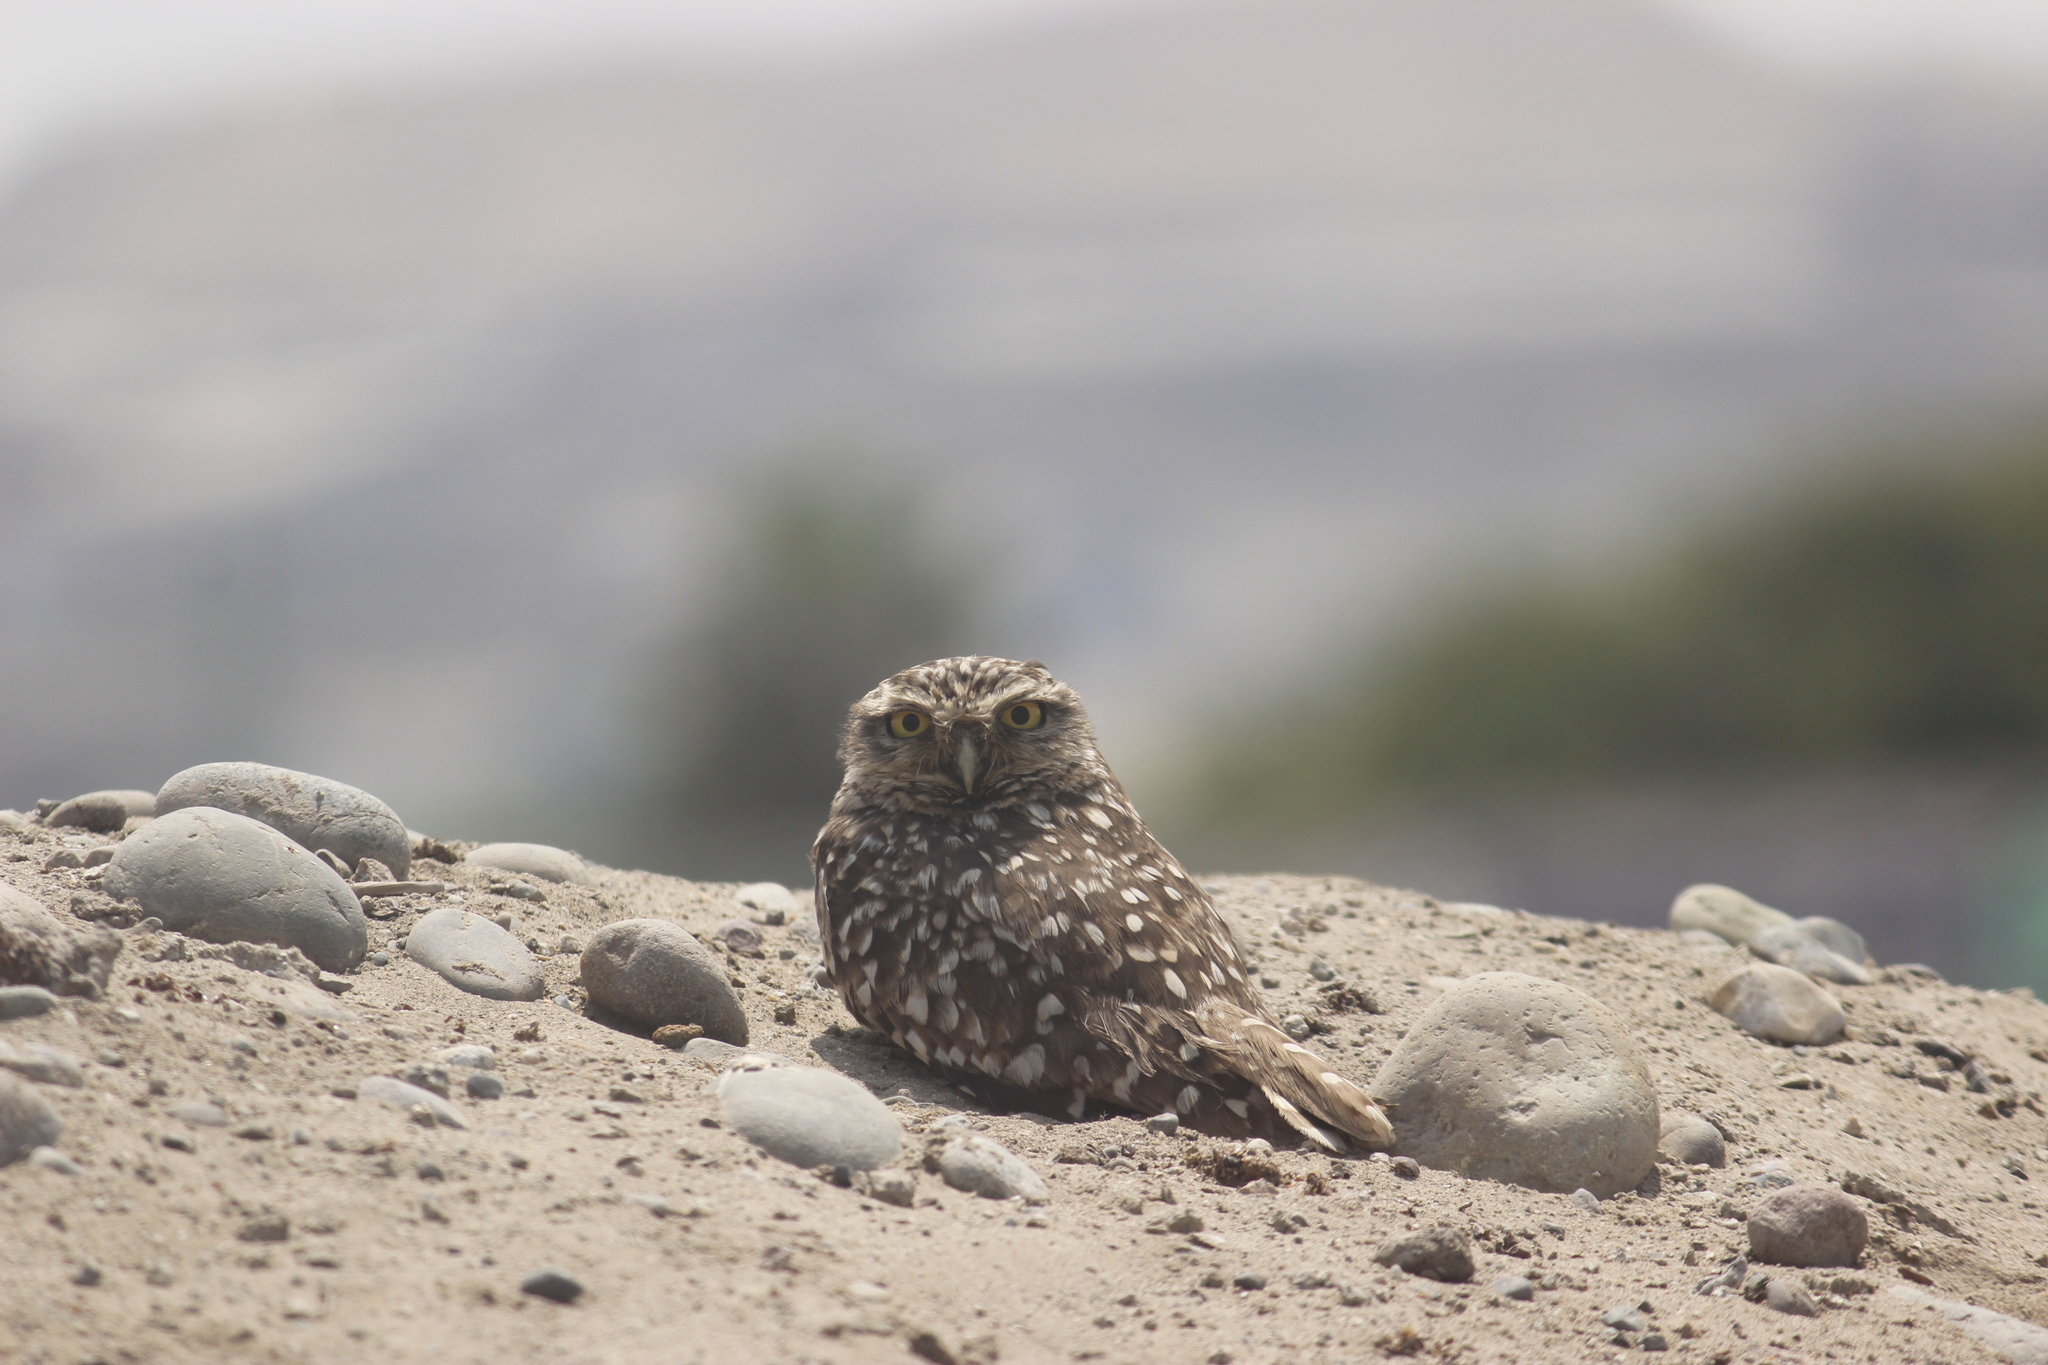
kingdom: Animalia
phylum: Chordata
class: Aves
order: Strigiformes
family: Strigidae
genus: Athene
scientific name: Athene cunicularia
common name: Burrowing owl
